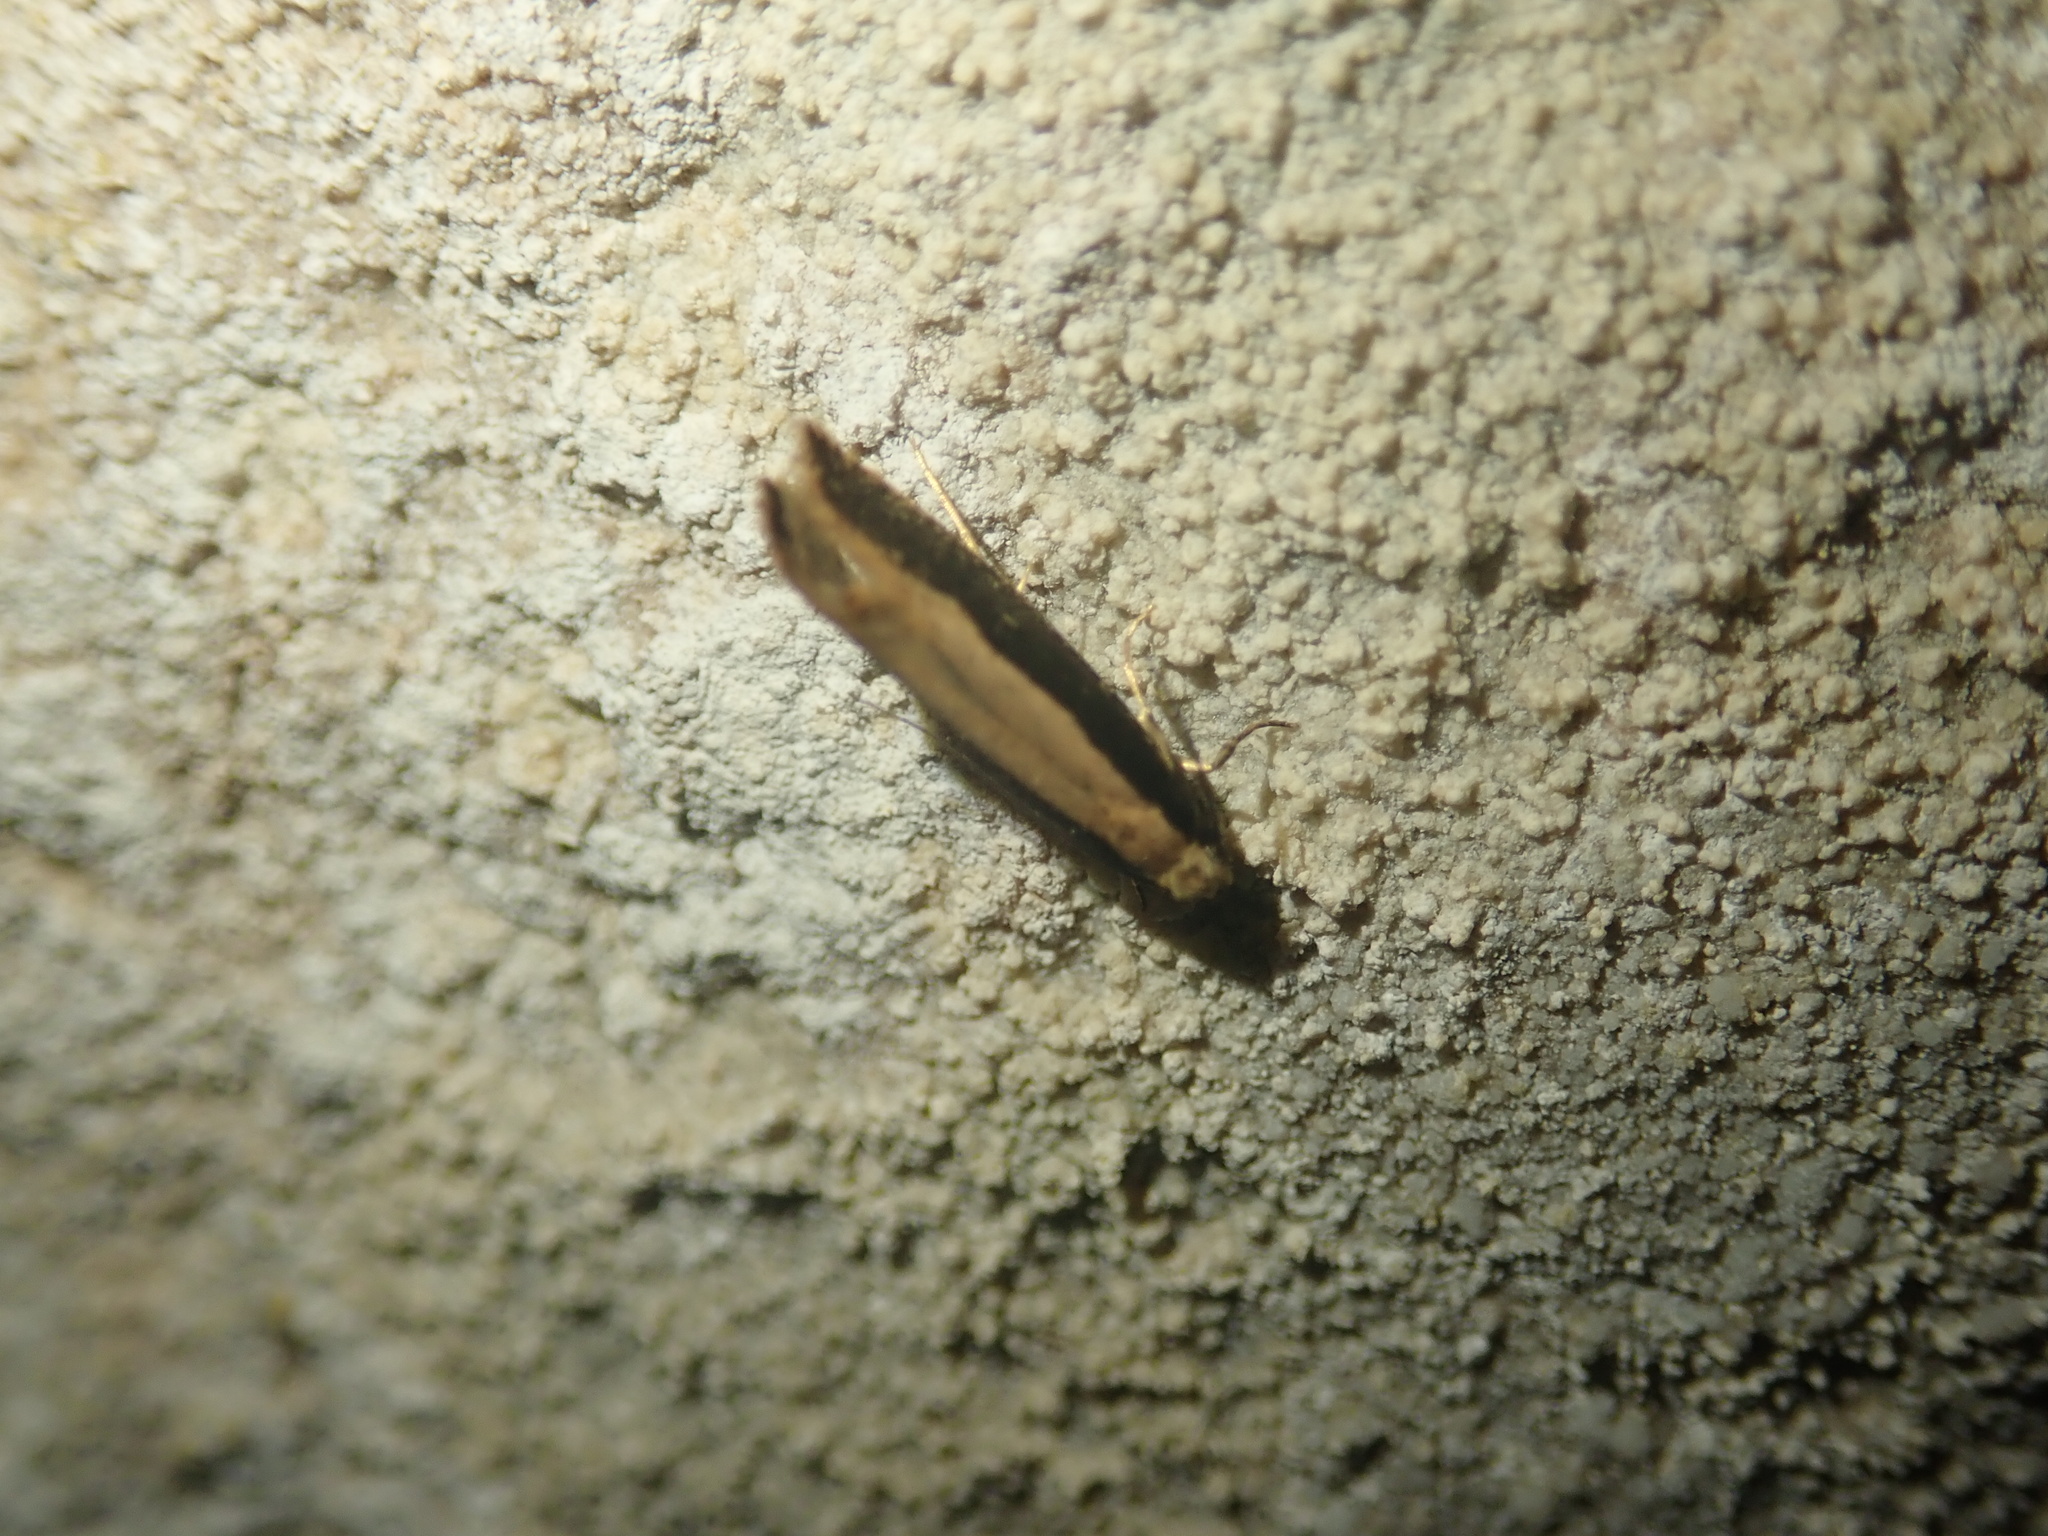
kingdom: Animalia
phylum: Arthropoda
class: Insecta
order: Lepidoptera
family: Tineidae
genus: Monopis
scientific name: Monopis dimorphella
